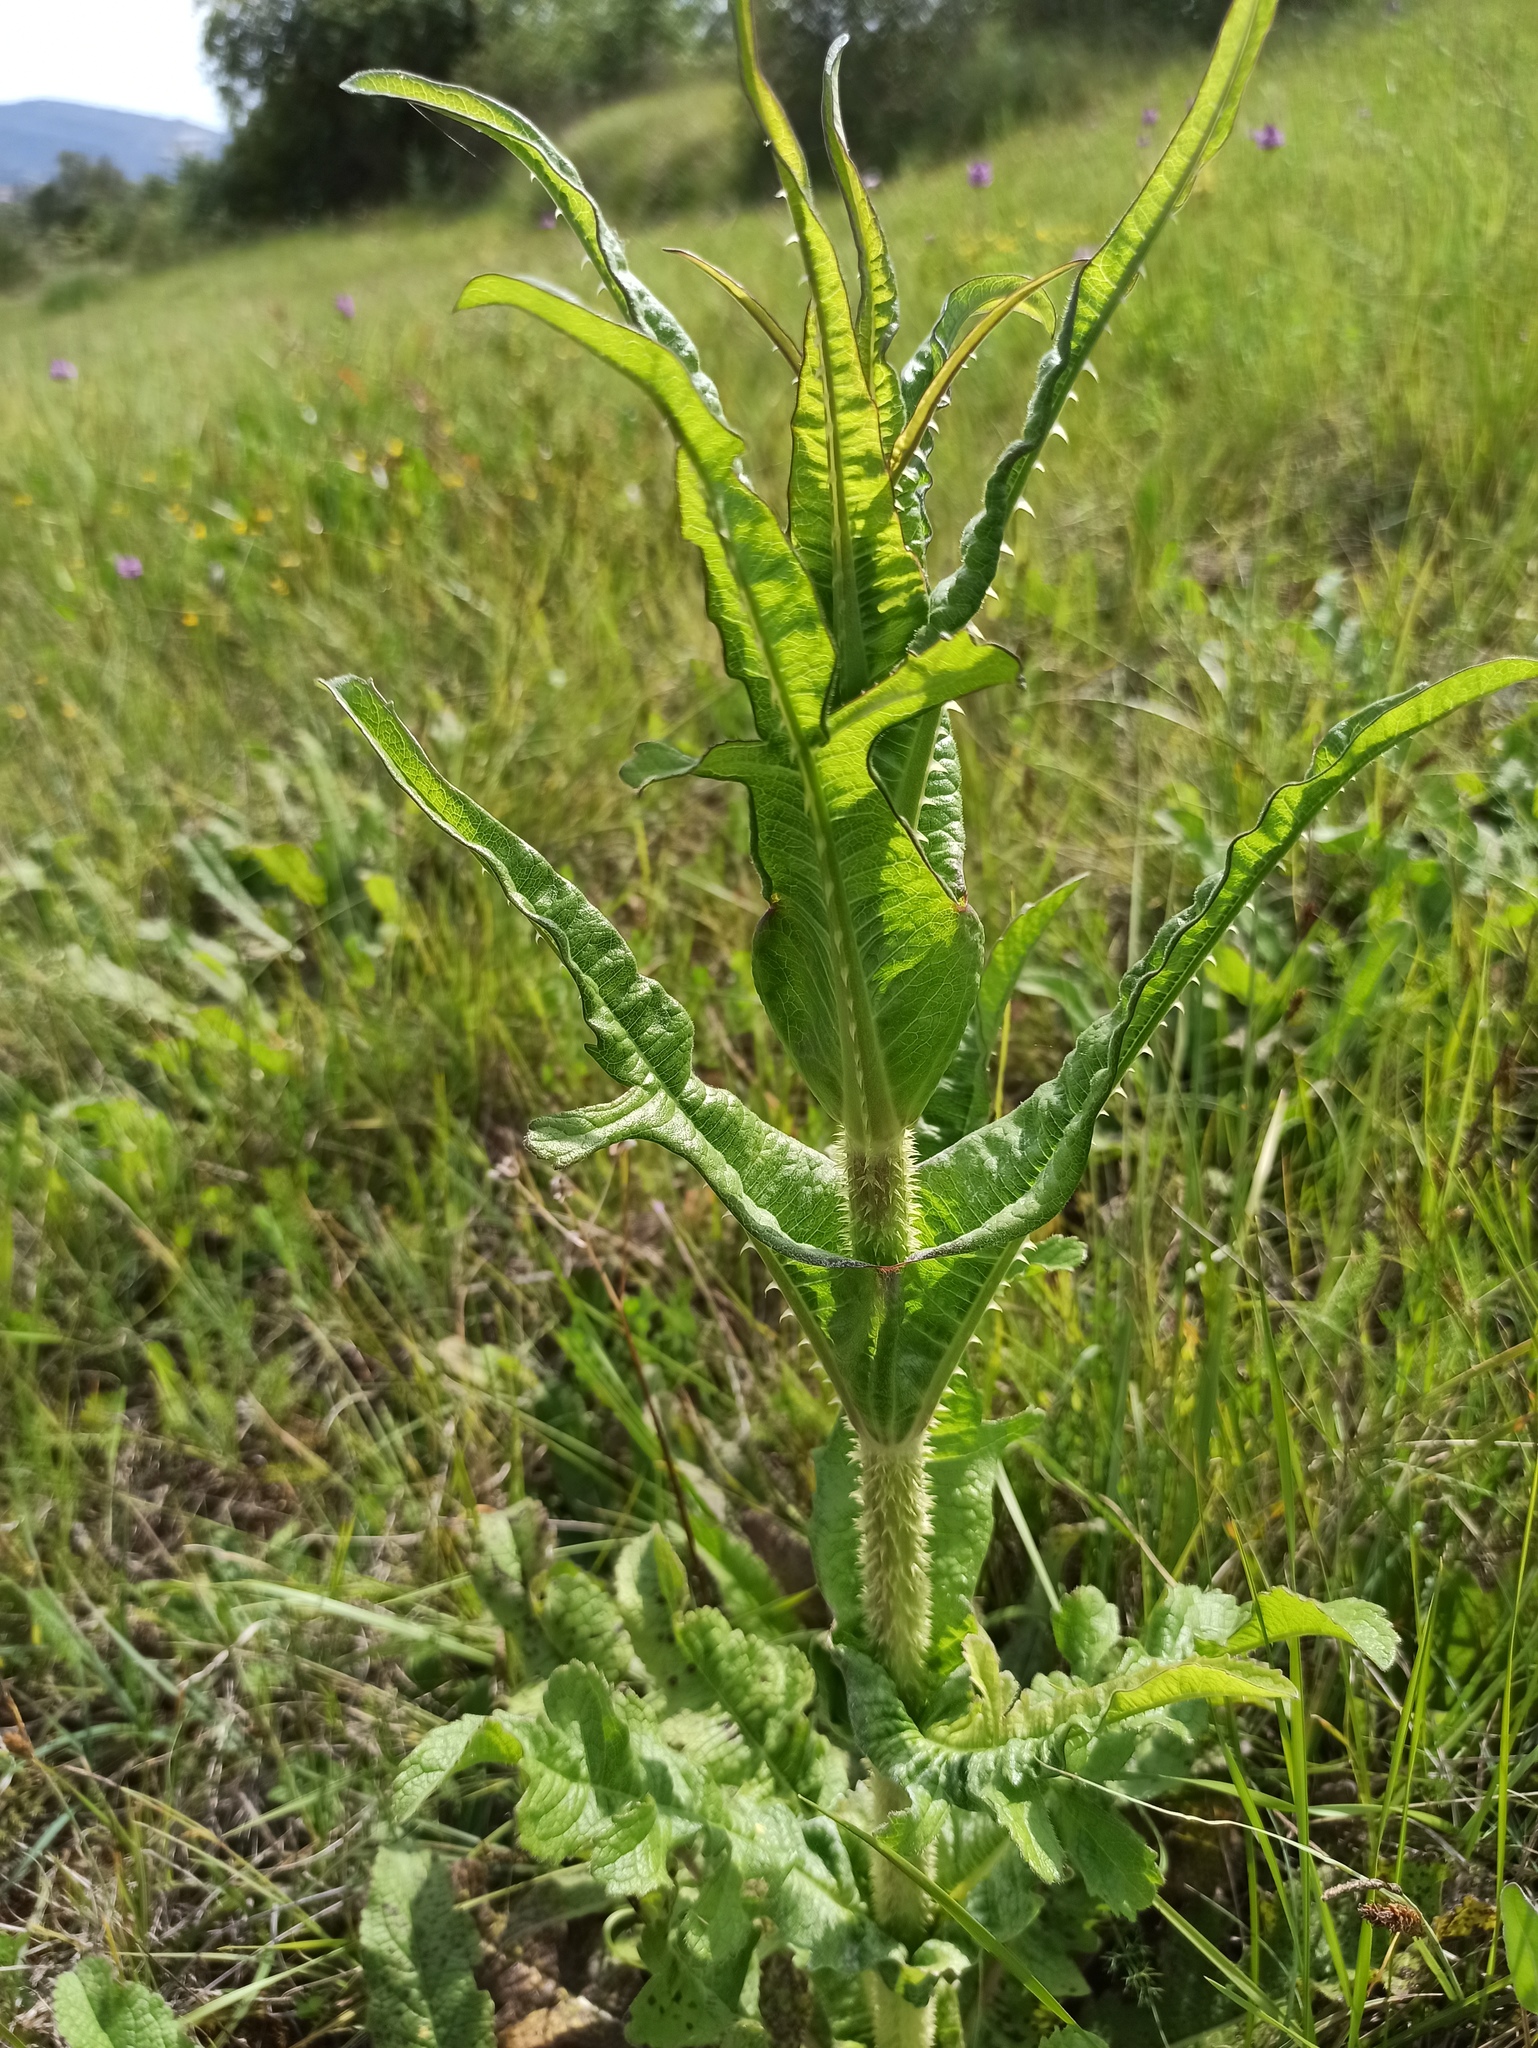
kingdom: Plantae
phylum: Tracheophyta
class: Magnoliopsida
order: Dipsacales
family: Caprifoliaceae
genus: Dipsacus
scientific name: Dipsacus comosus
